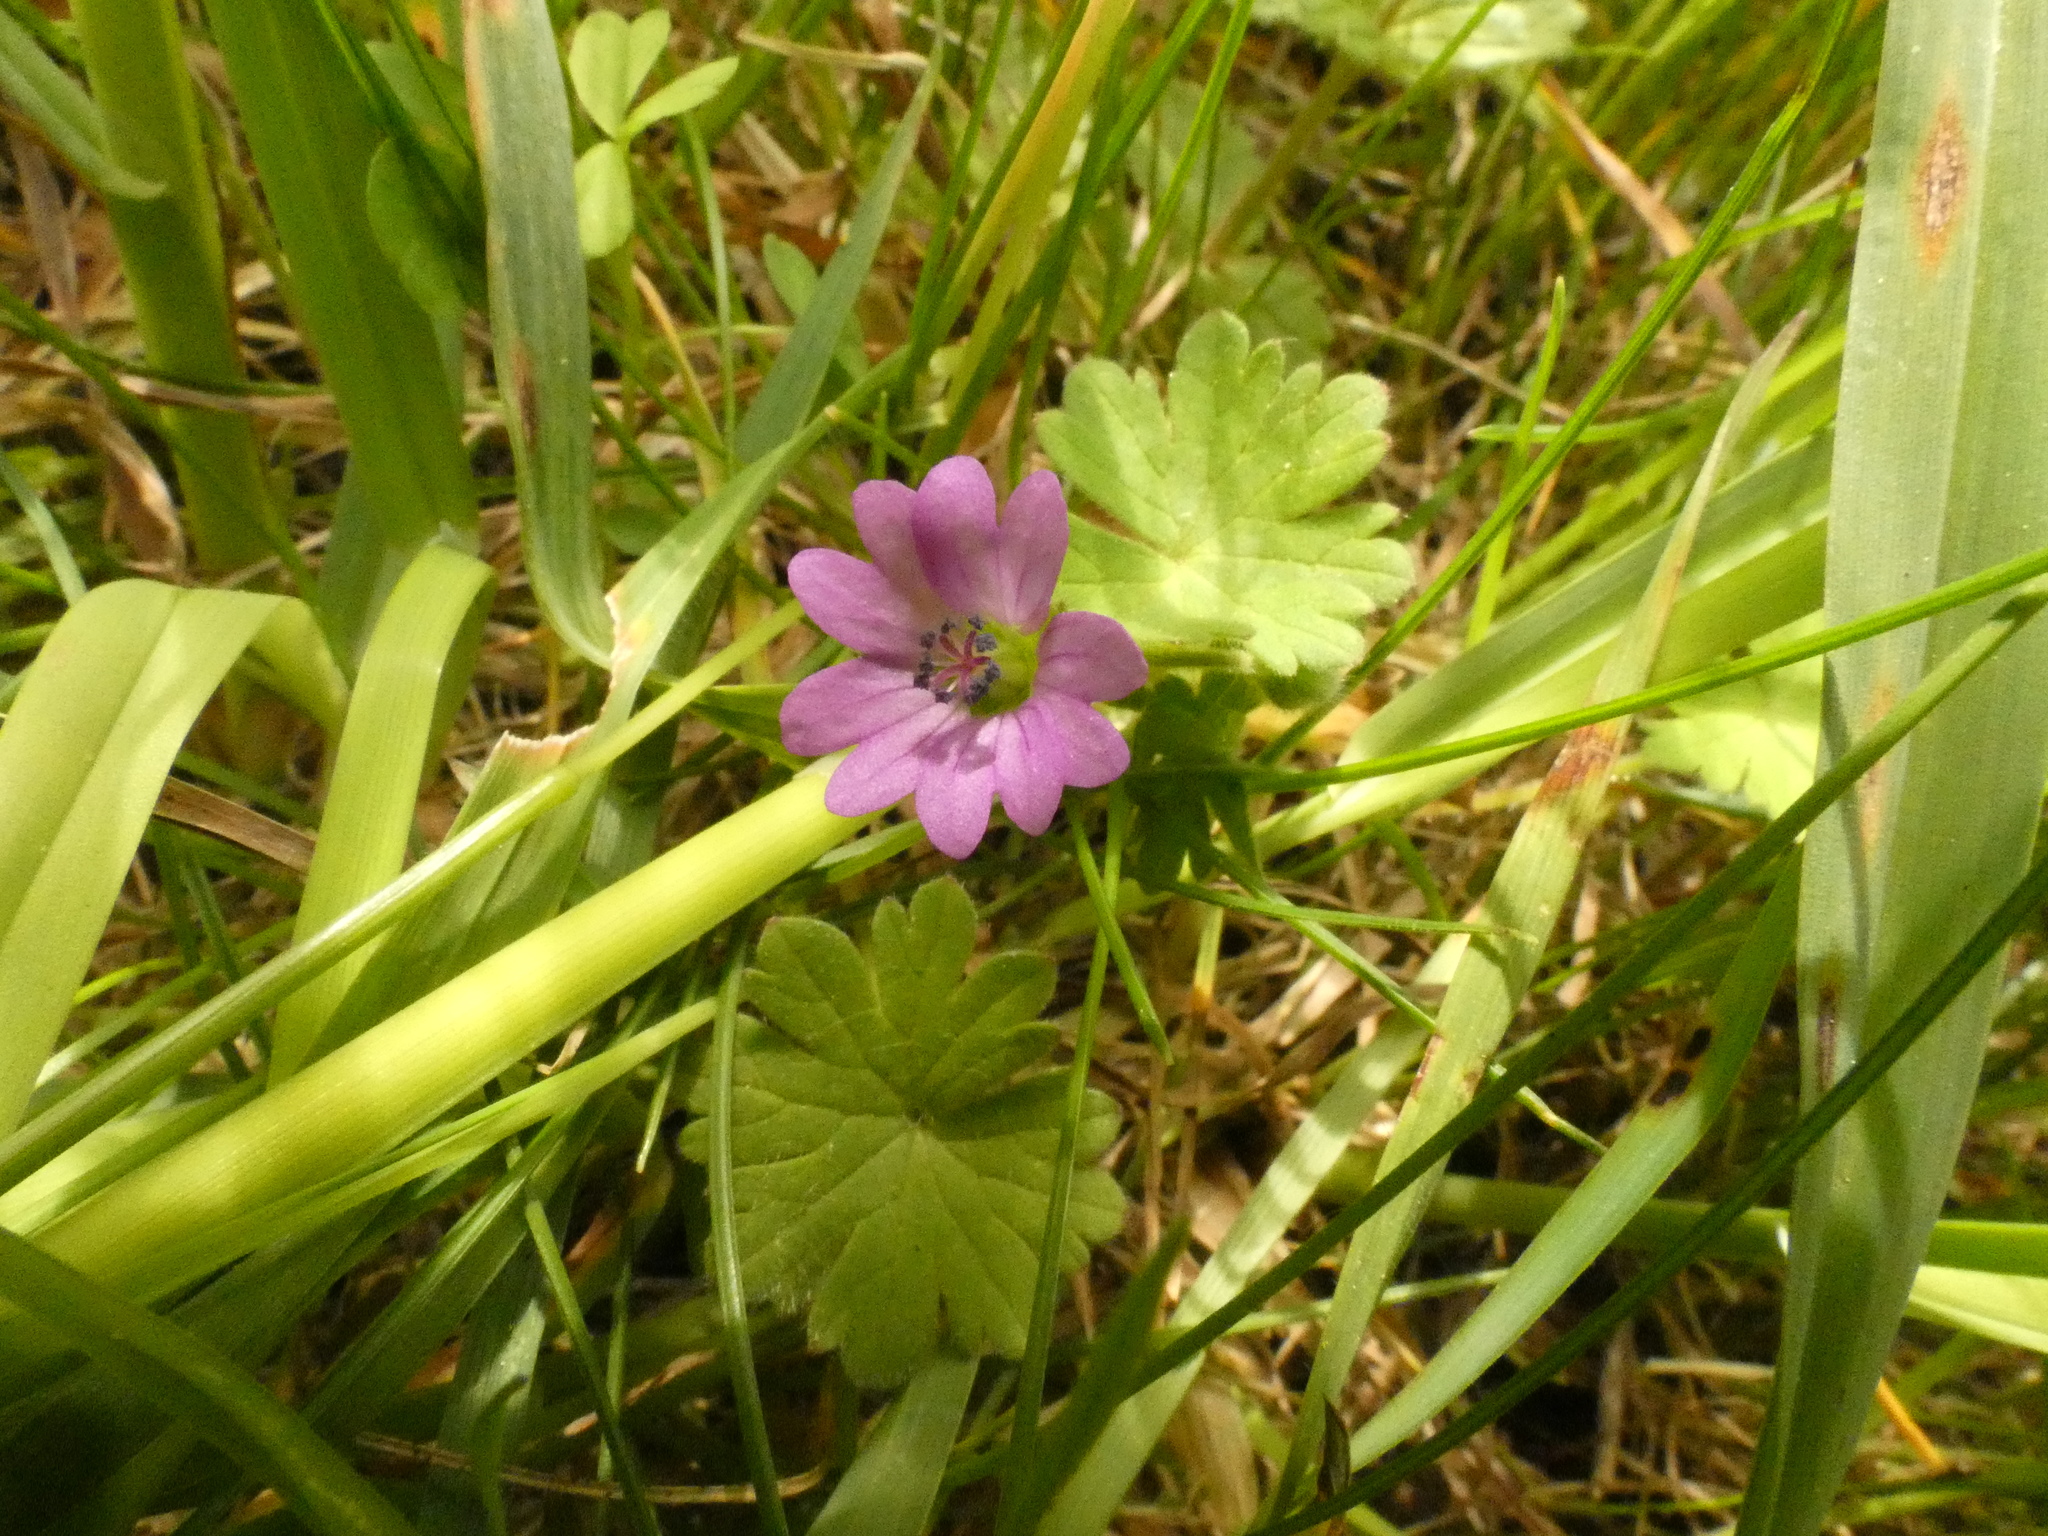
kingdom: Plantae
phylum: Tracheophyta
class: Magnoliopsida
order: Geraniales
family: Geraniaceae
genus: Geranium
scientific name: Geranium pusillum
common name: Small geranium
